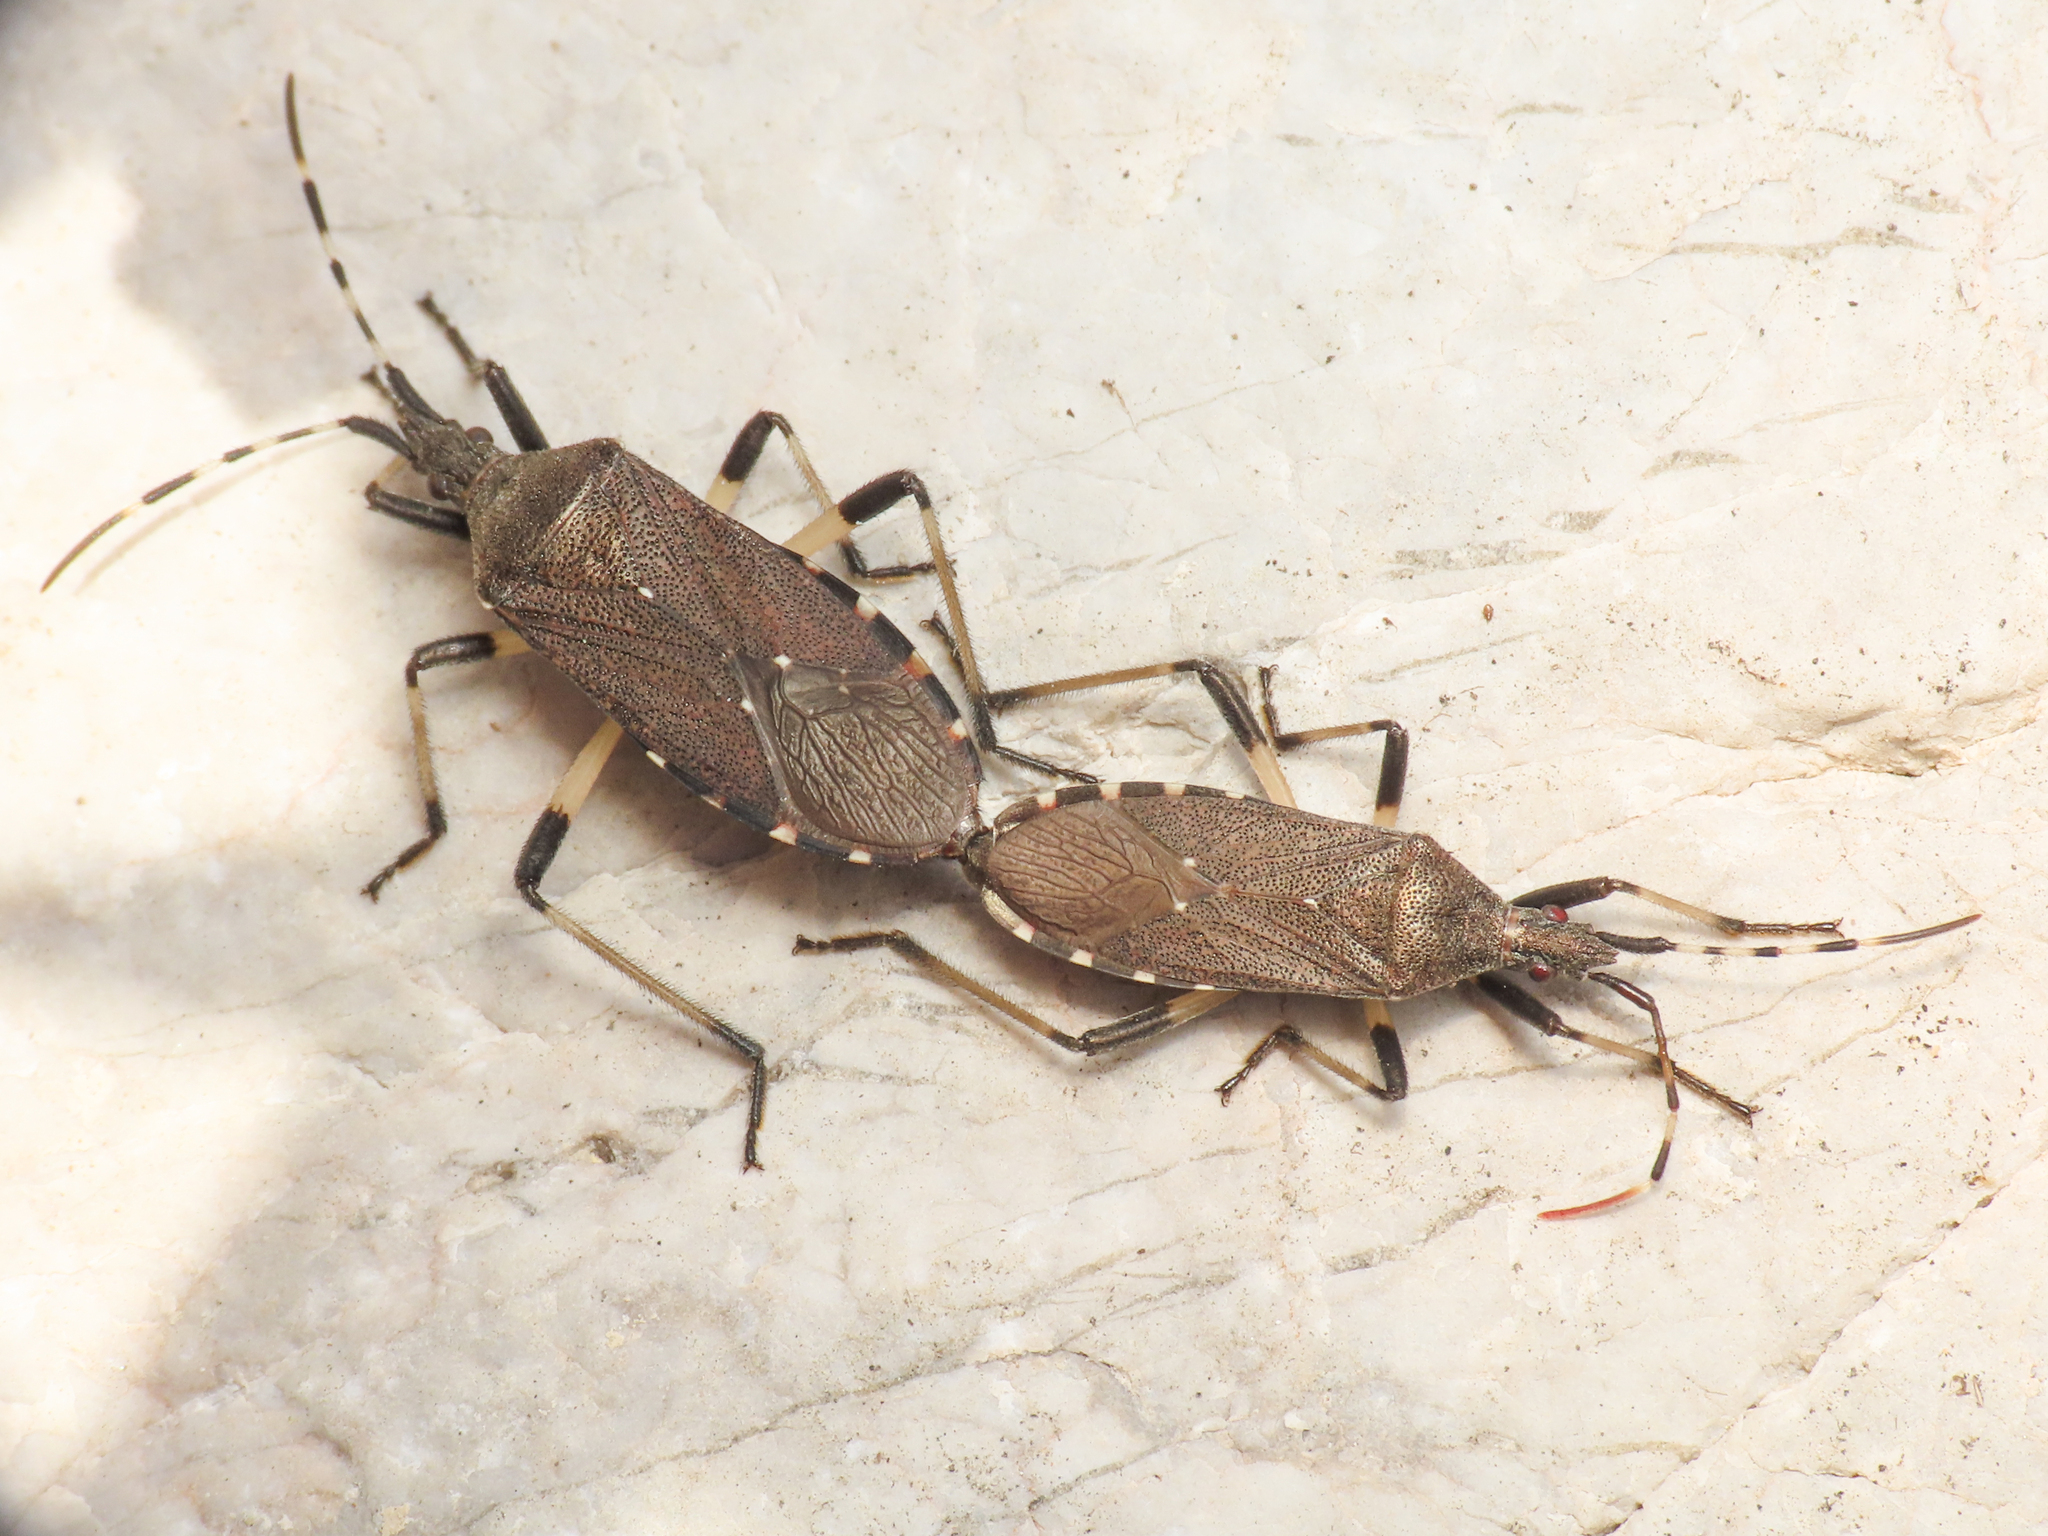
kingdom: Animalia
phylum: Arthropoda
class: Insecta
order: Hemiptera
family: Stenocephalidae
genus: Dicranocephalus
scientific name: Dicranocephalus agilis
